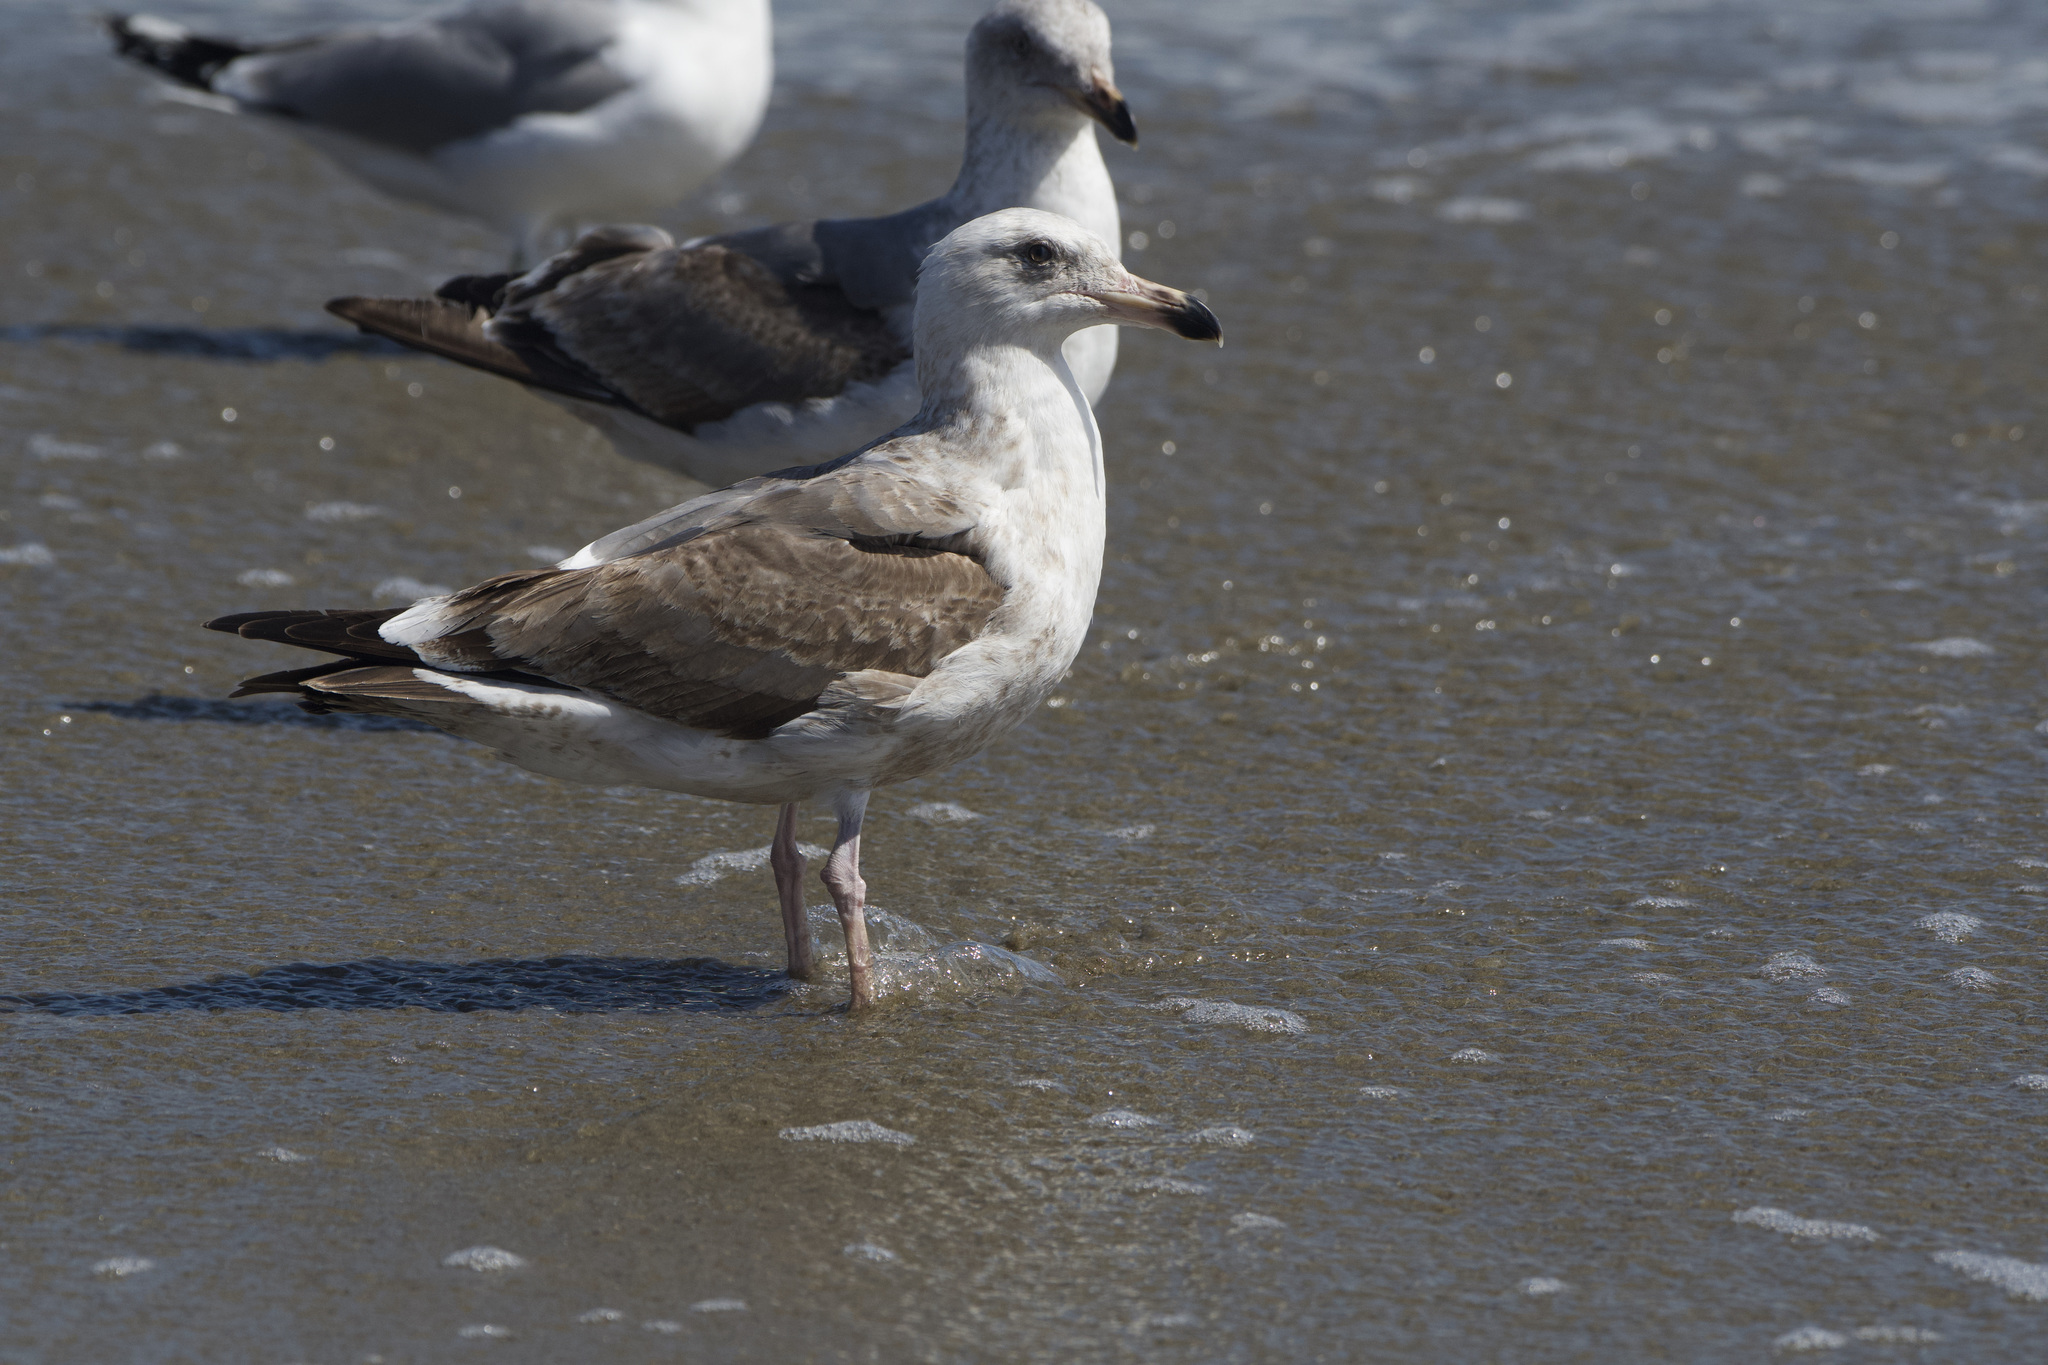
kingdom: Animalia
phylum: Chordata
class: Aves
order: Charadriiformes
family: Laridae
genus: Larus
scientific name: Larus occidentalis
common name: Western gull
